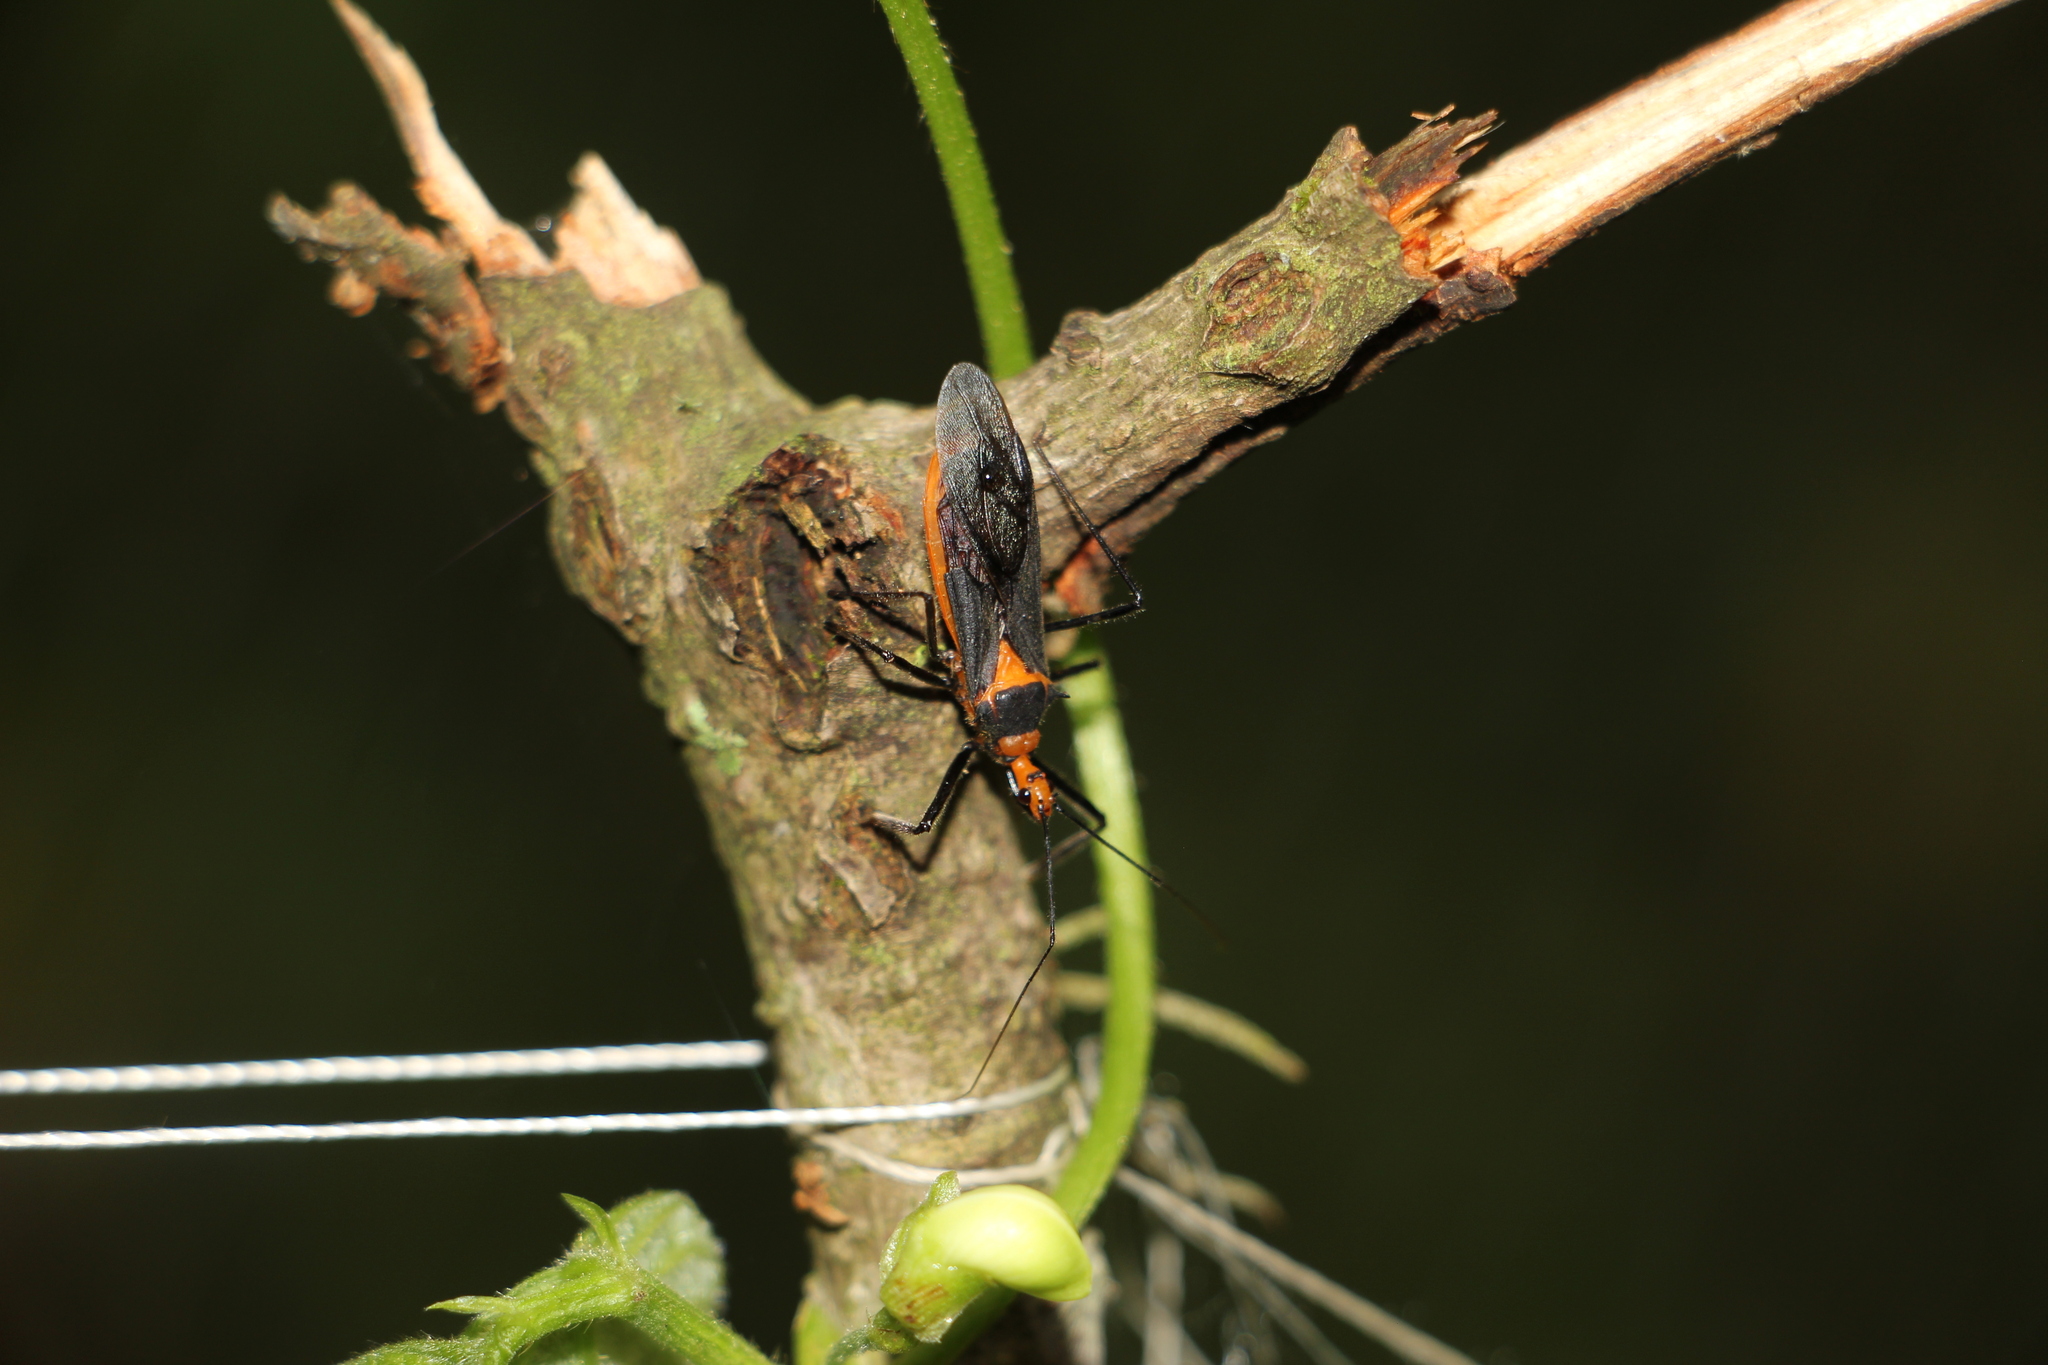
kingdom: Animalia
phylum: Arthropoda
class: Insecta
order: Hemiptera
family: Reduviidae
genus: Castolus
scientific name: Castolus rafaeli
